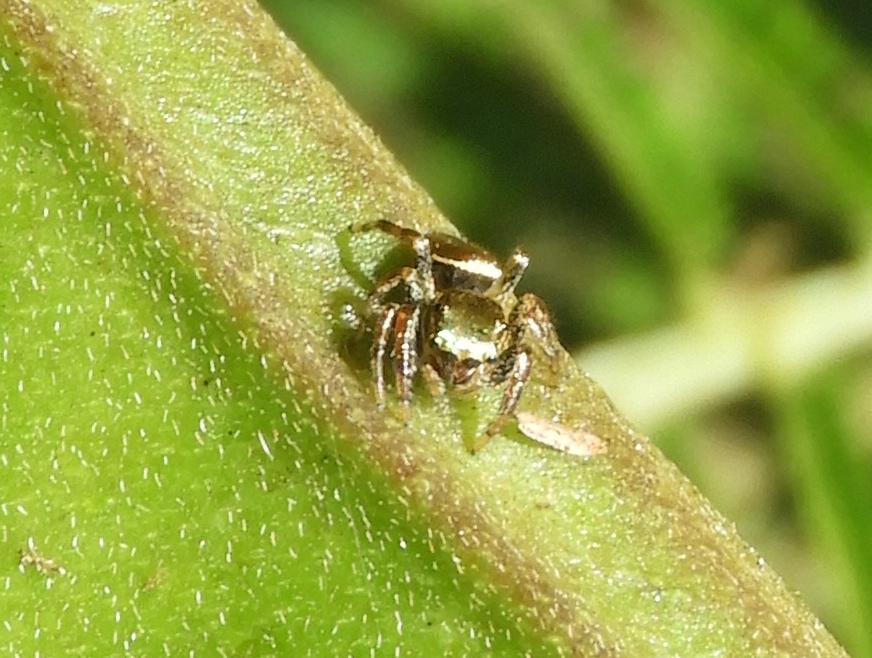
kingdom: Animalia
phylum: Arthropoda
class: Arachnida
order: Araneae
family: Salticidae
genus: Messua
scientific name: Messua limbata
